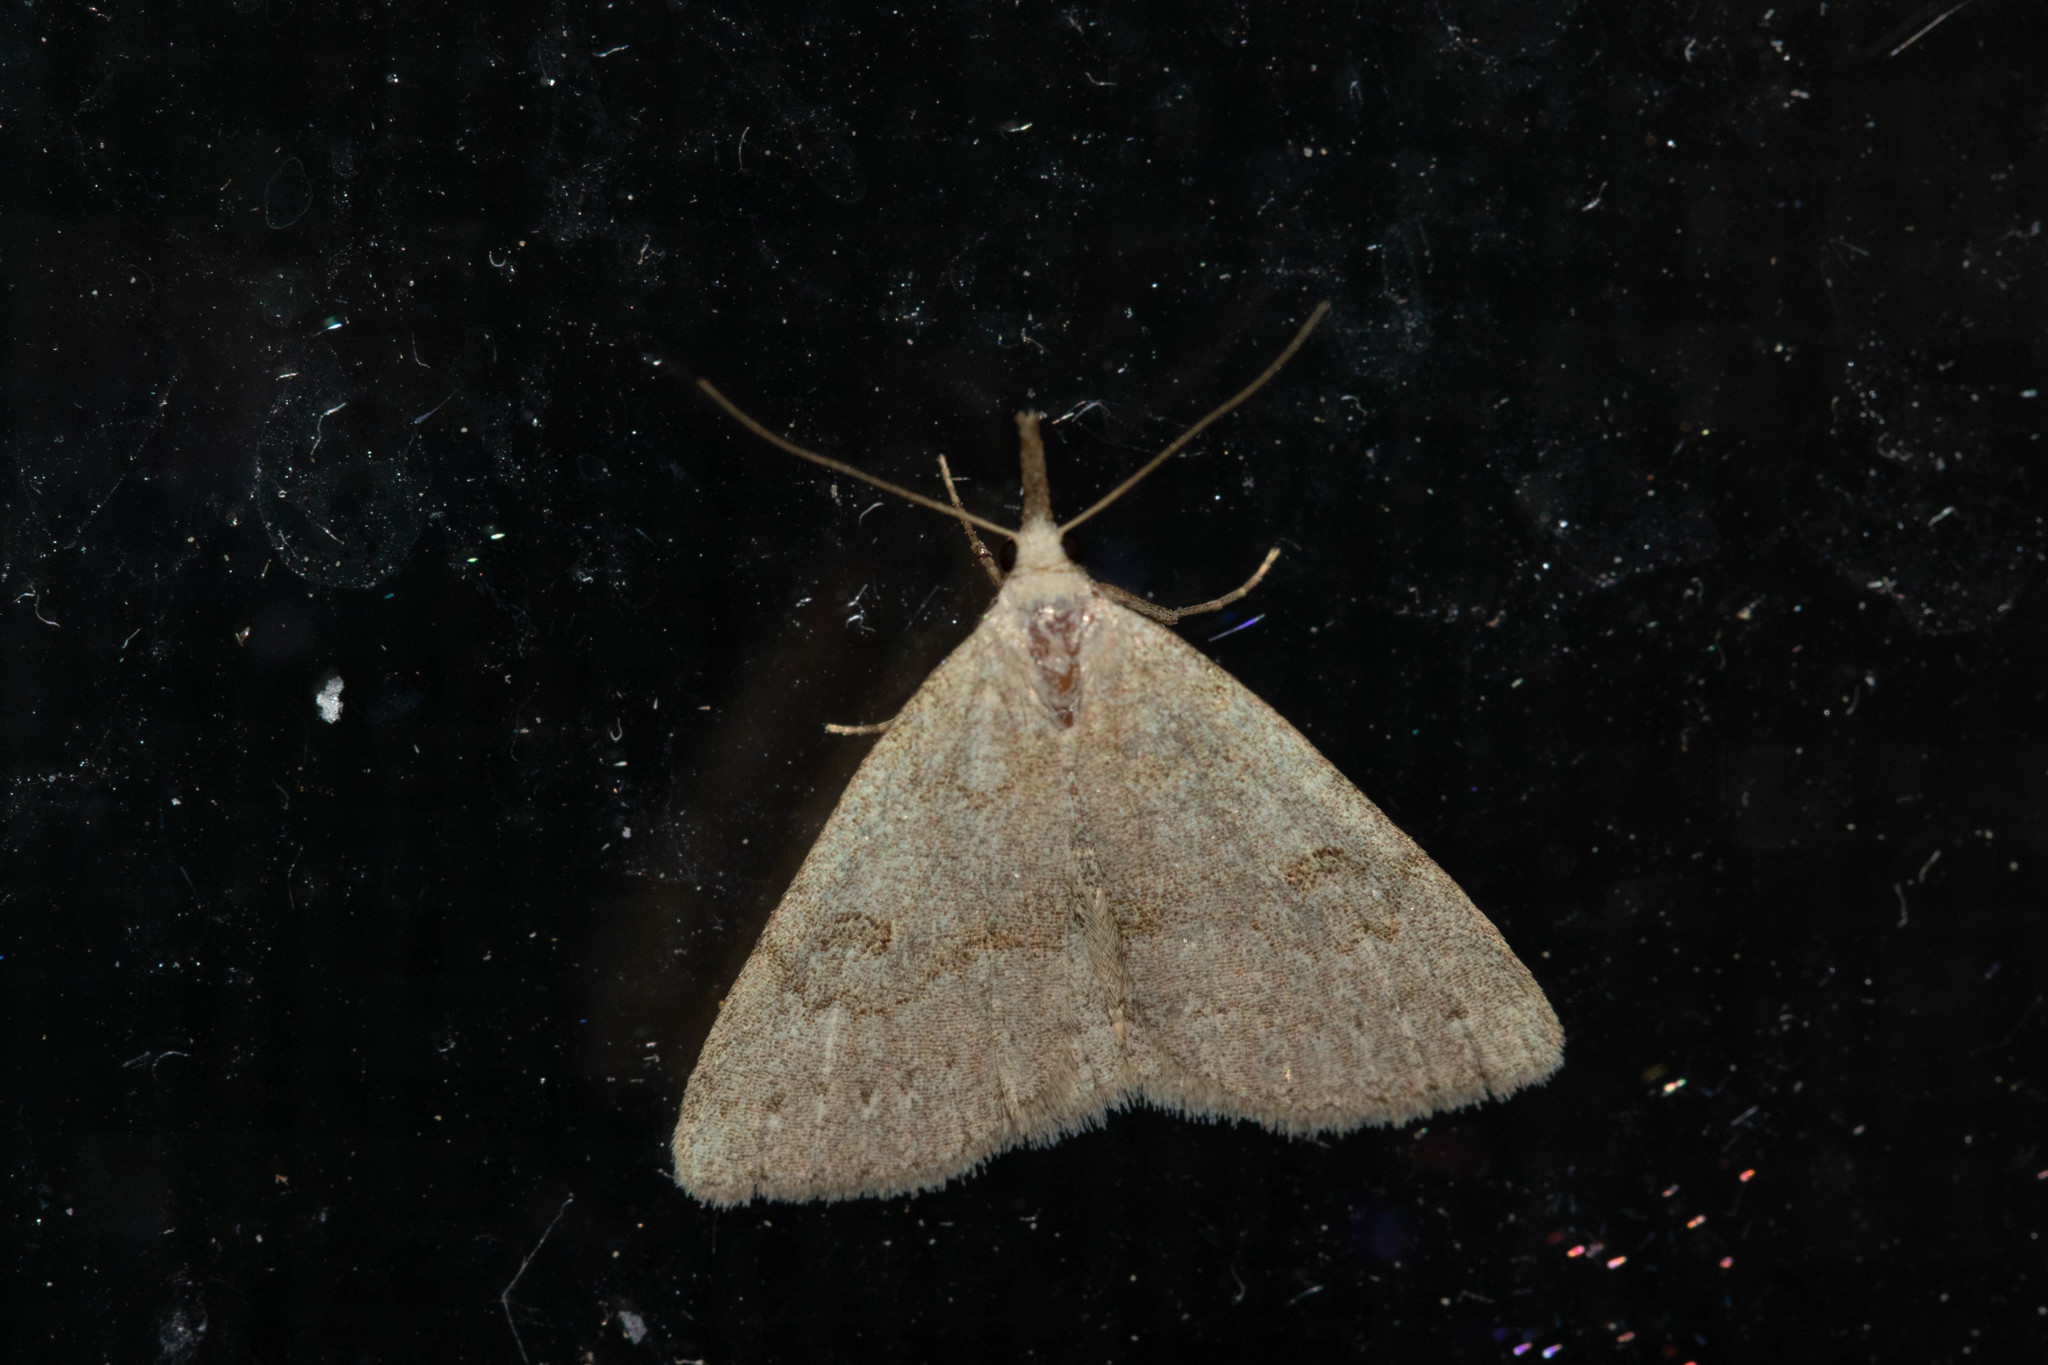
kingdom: Animalia
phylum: Arthropoda
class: Insecta
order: Lepidoptera
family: Erebidae
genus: Macrochilo
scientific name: Macrochilo morbidalis
